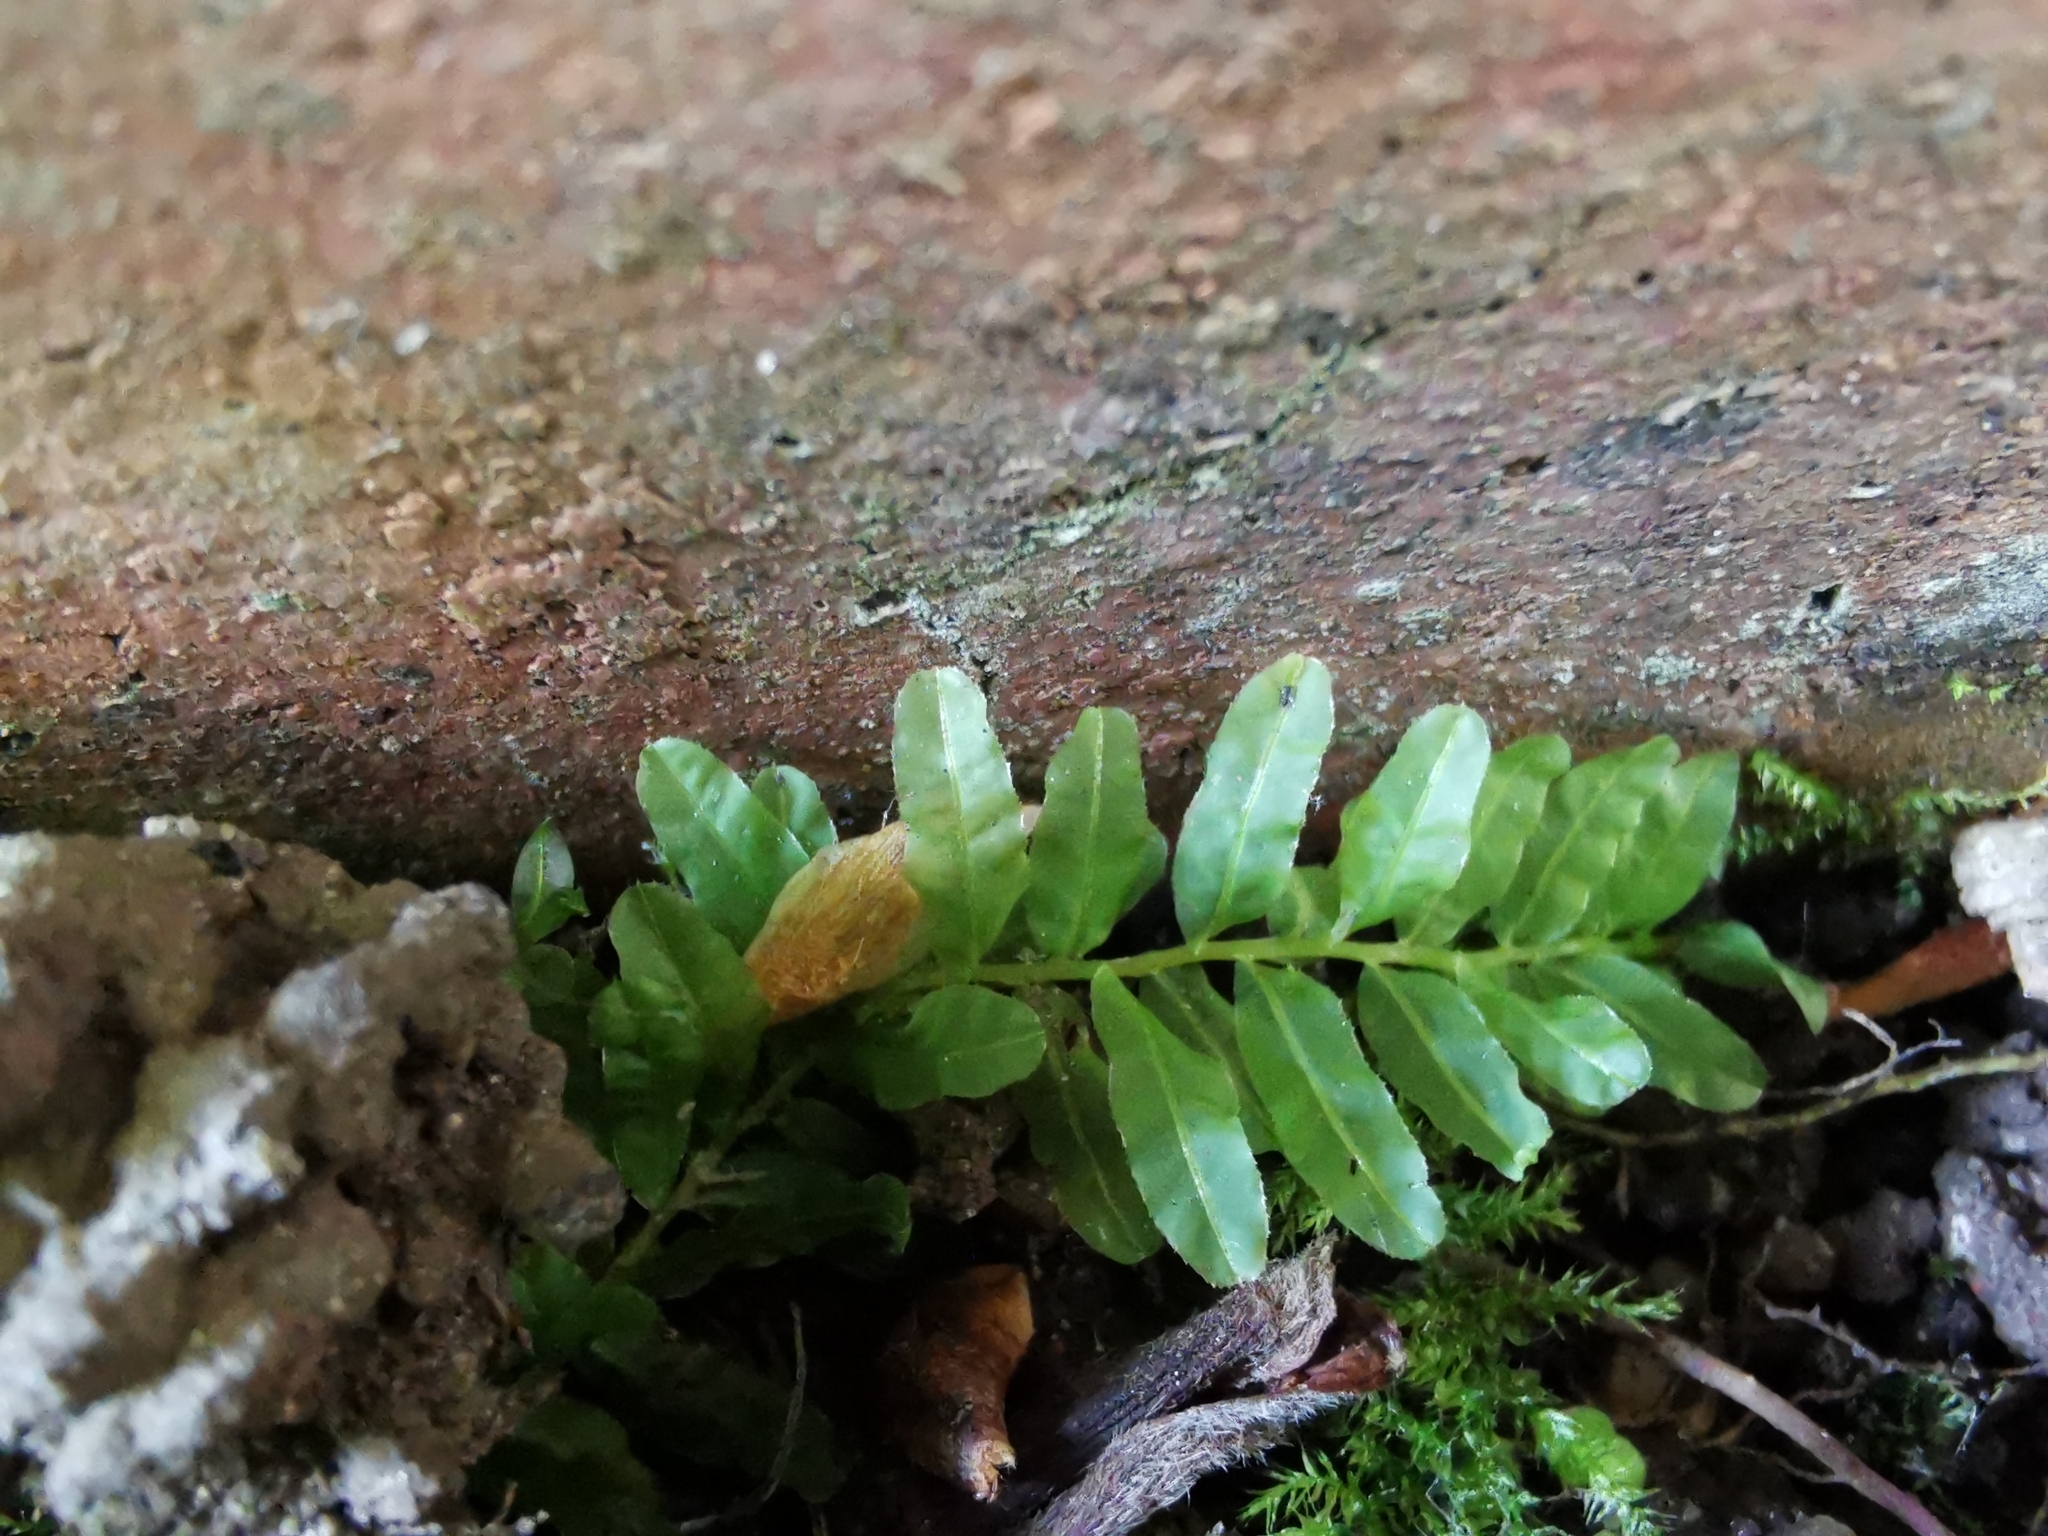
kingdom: Plantae
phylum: Bryophyta
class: Bryopsida
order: Bryales
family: Mniaceae
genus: Plagiomnium
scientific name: Plagiomnium undulatum
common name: Hart's-tongue thyme-moss
